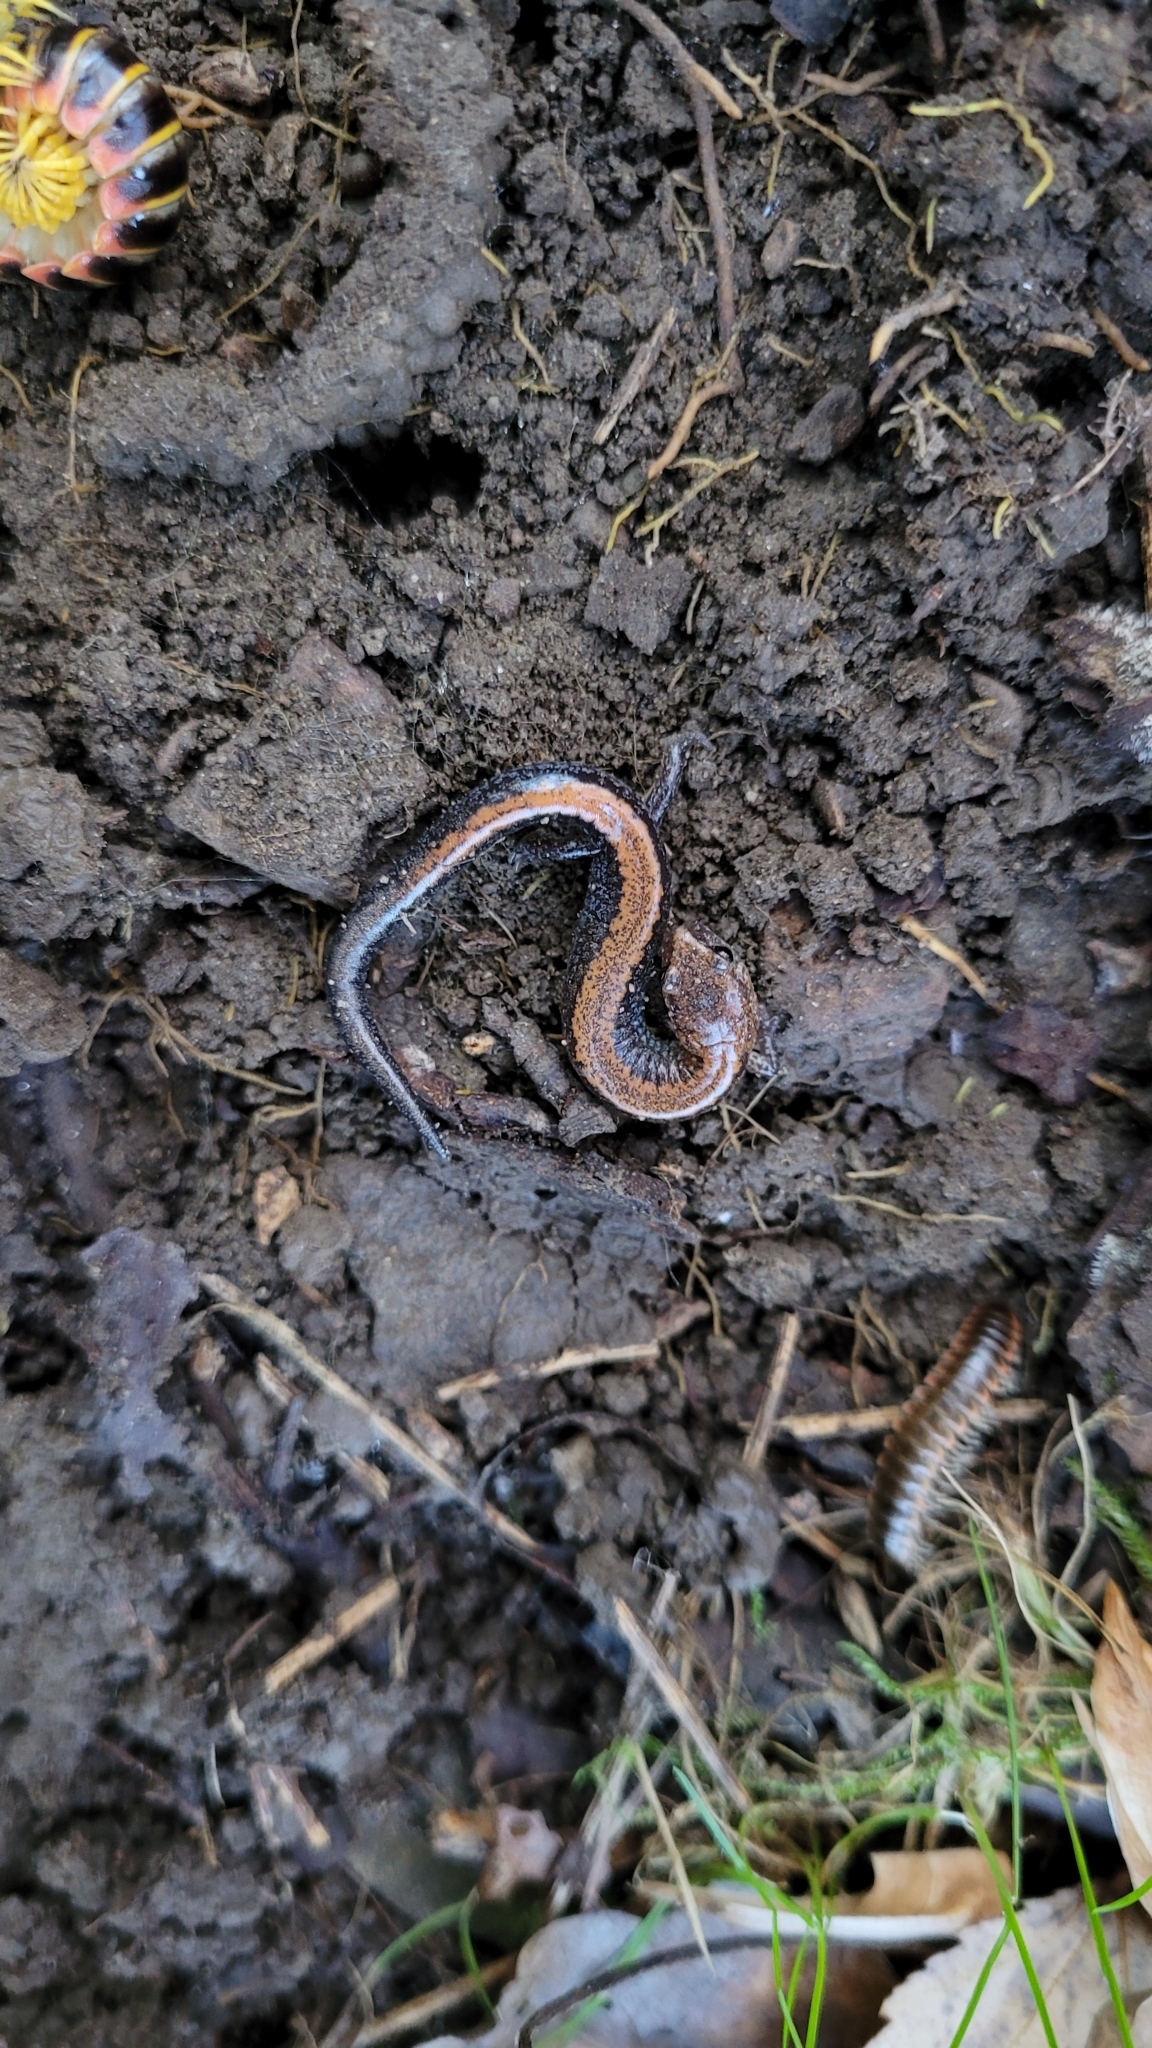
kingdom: Animalia
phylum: Chordata
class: Amphibia
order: Caudata
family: Plethodontidae
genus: Plethodon
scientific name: Plethodon cinereus
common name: Redback salamander
